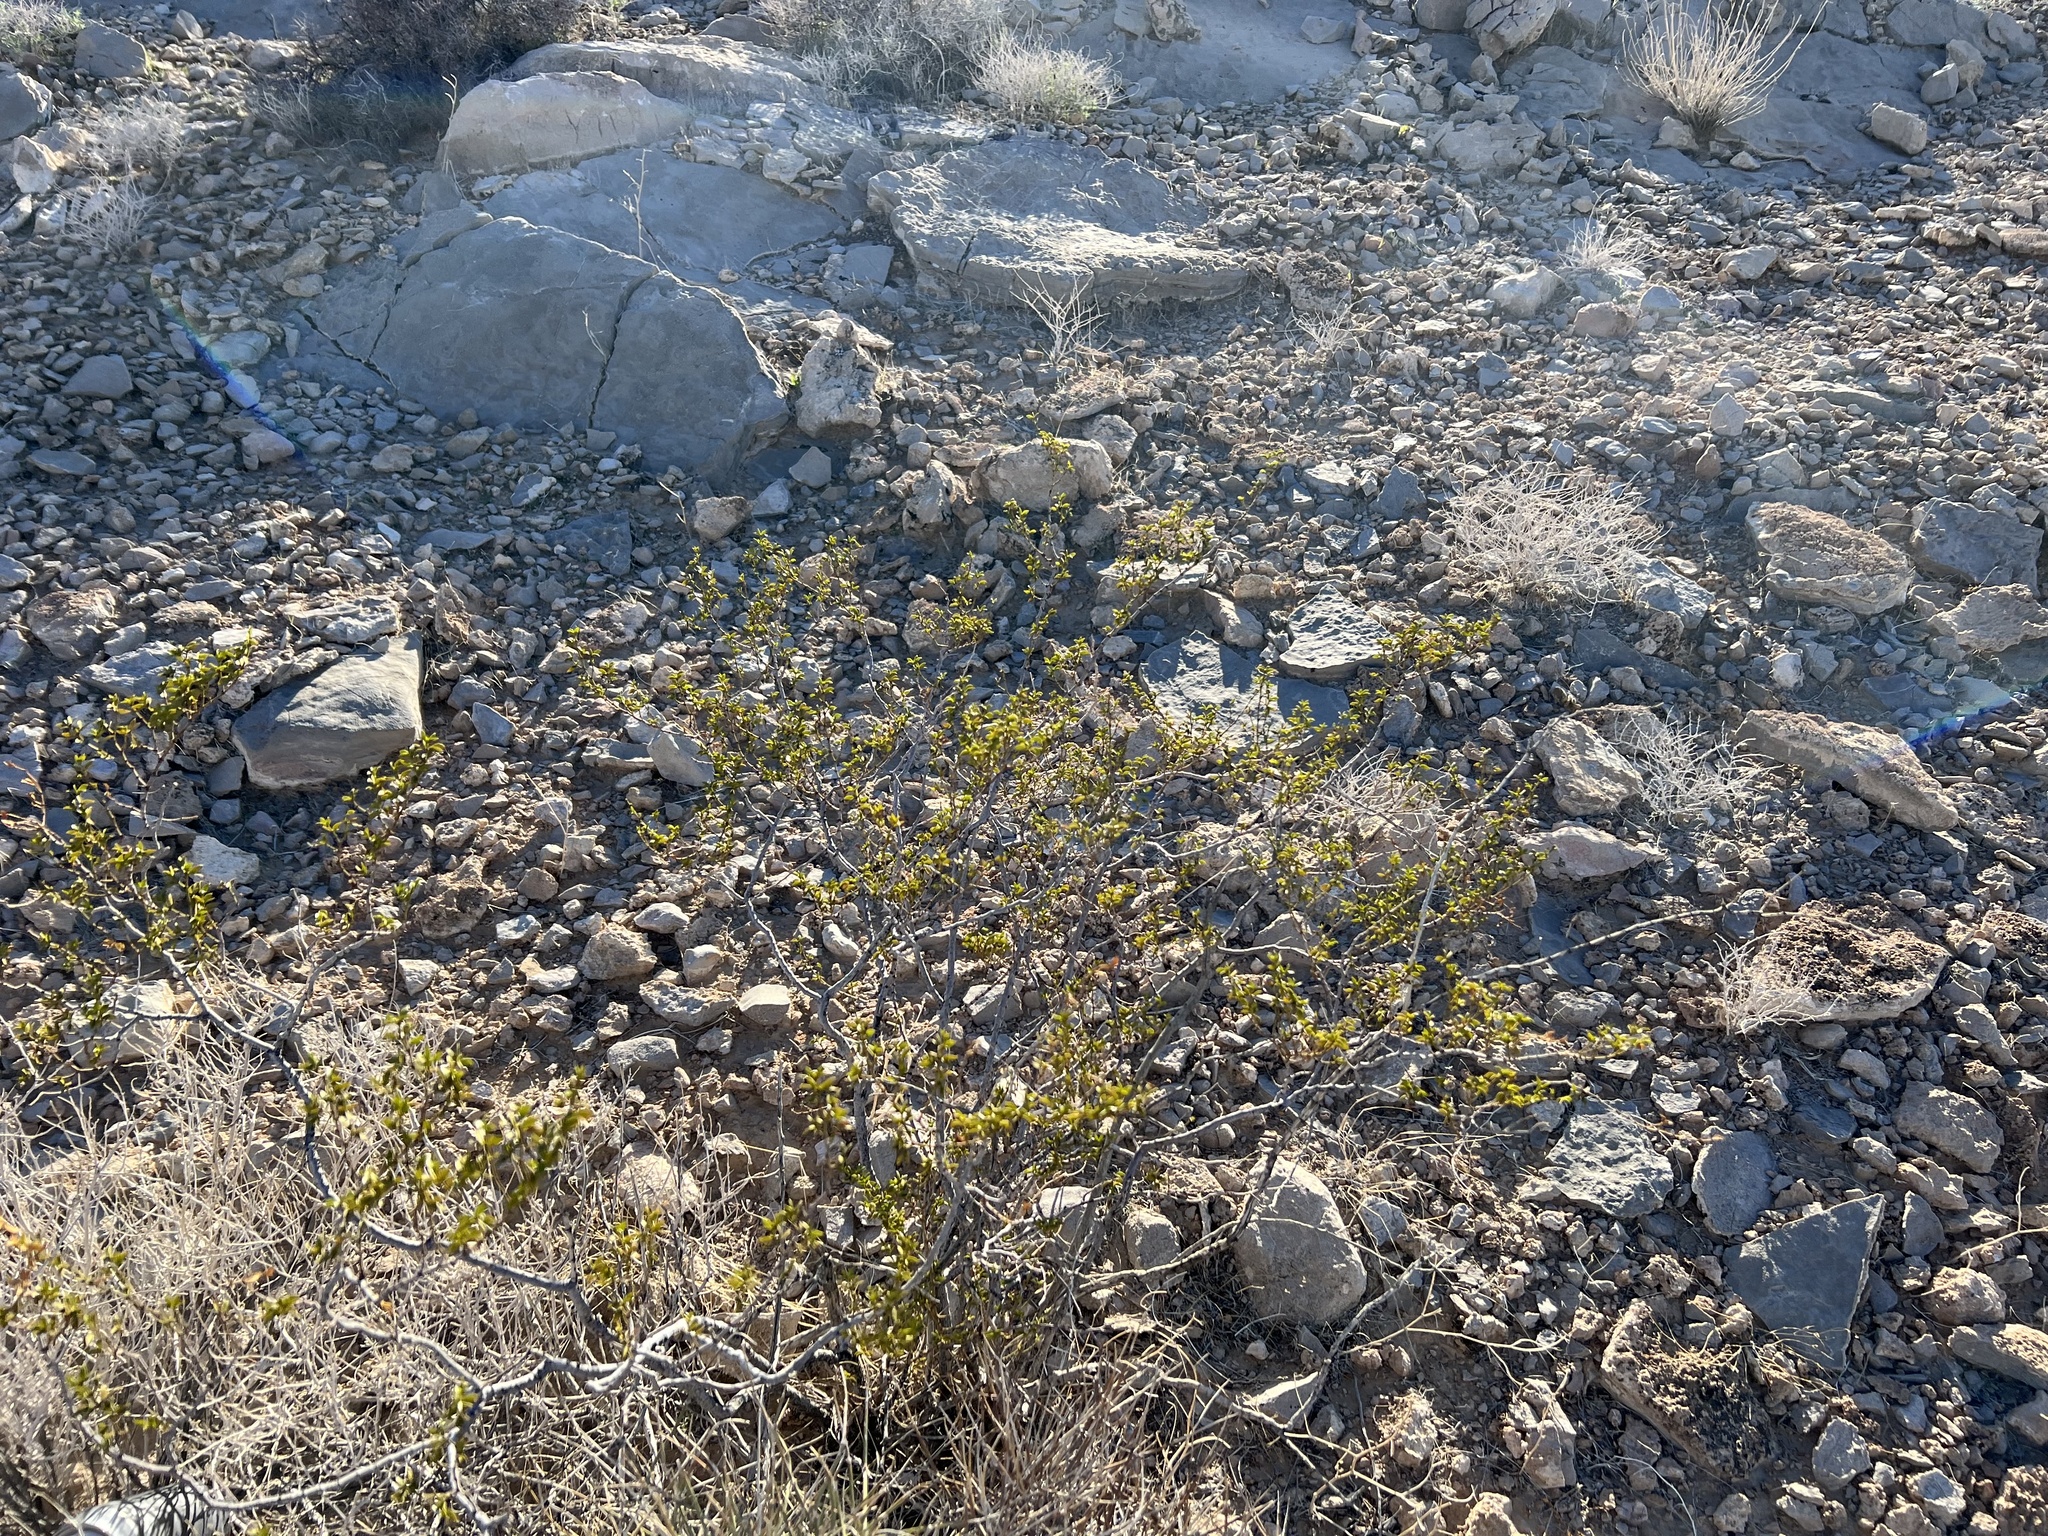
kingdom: Plantae
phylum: Tracheophyta
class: Magnoliopsida
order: Zygophyllales
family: Zygophyllaceae
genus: Larrea
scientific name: Larrea tridentata
